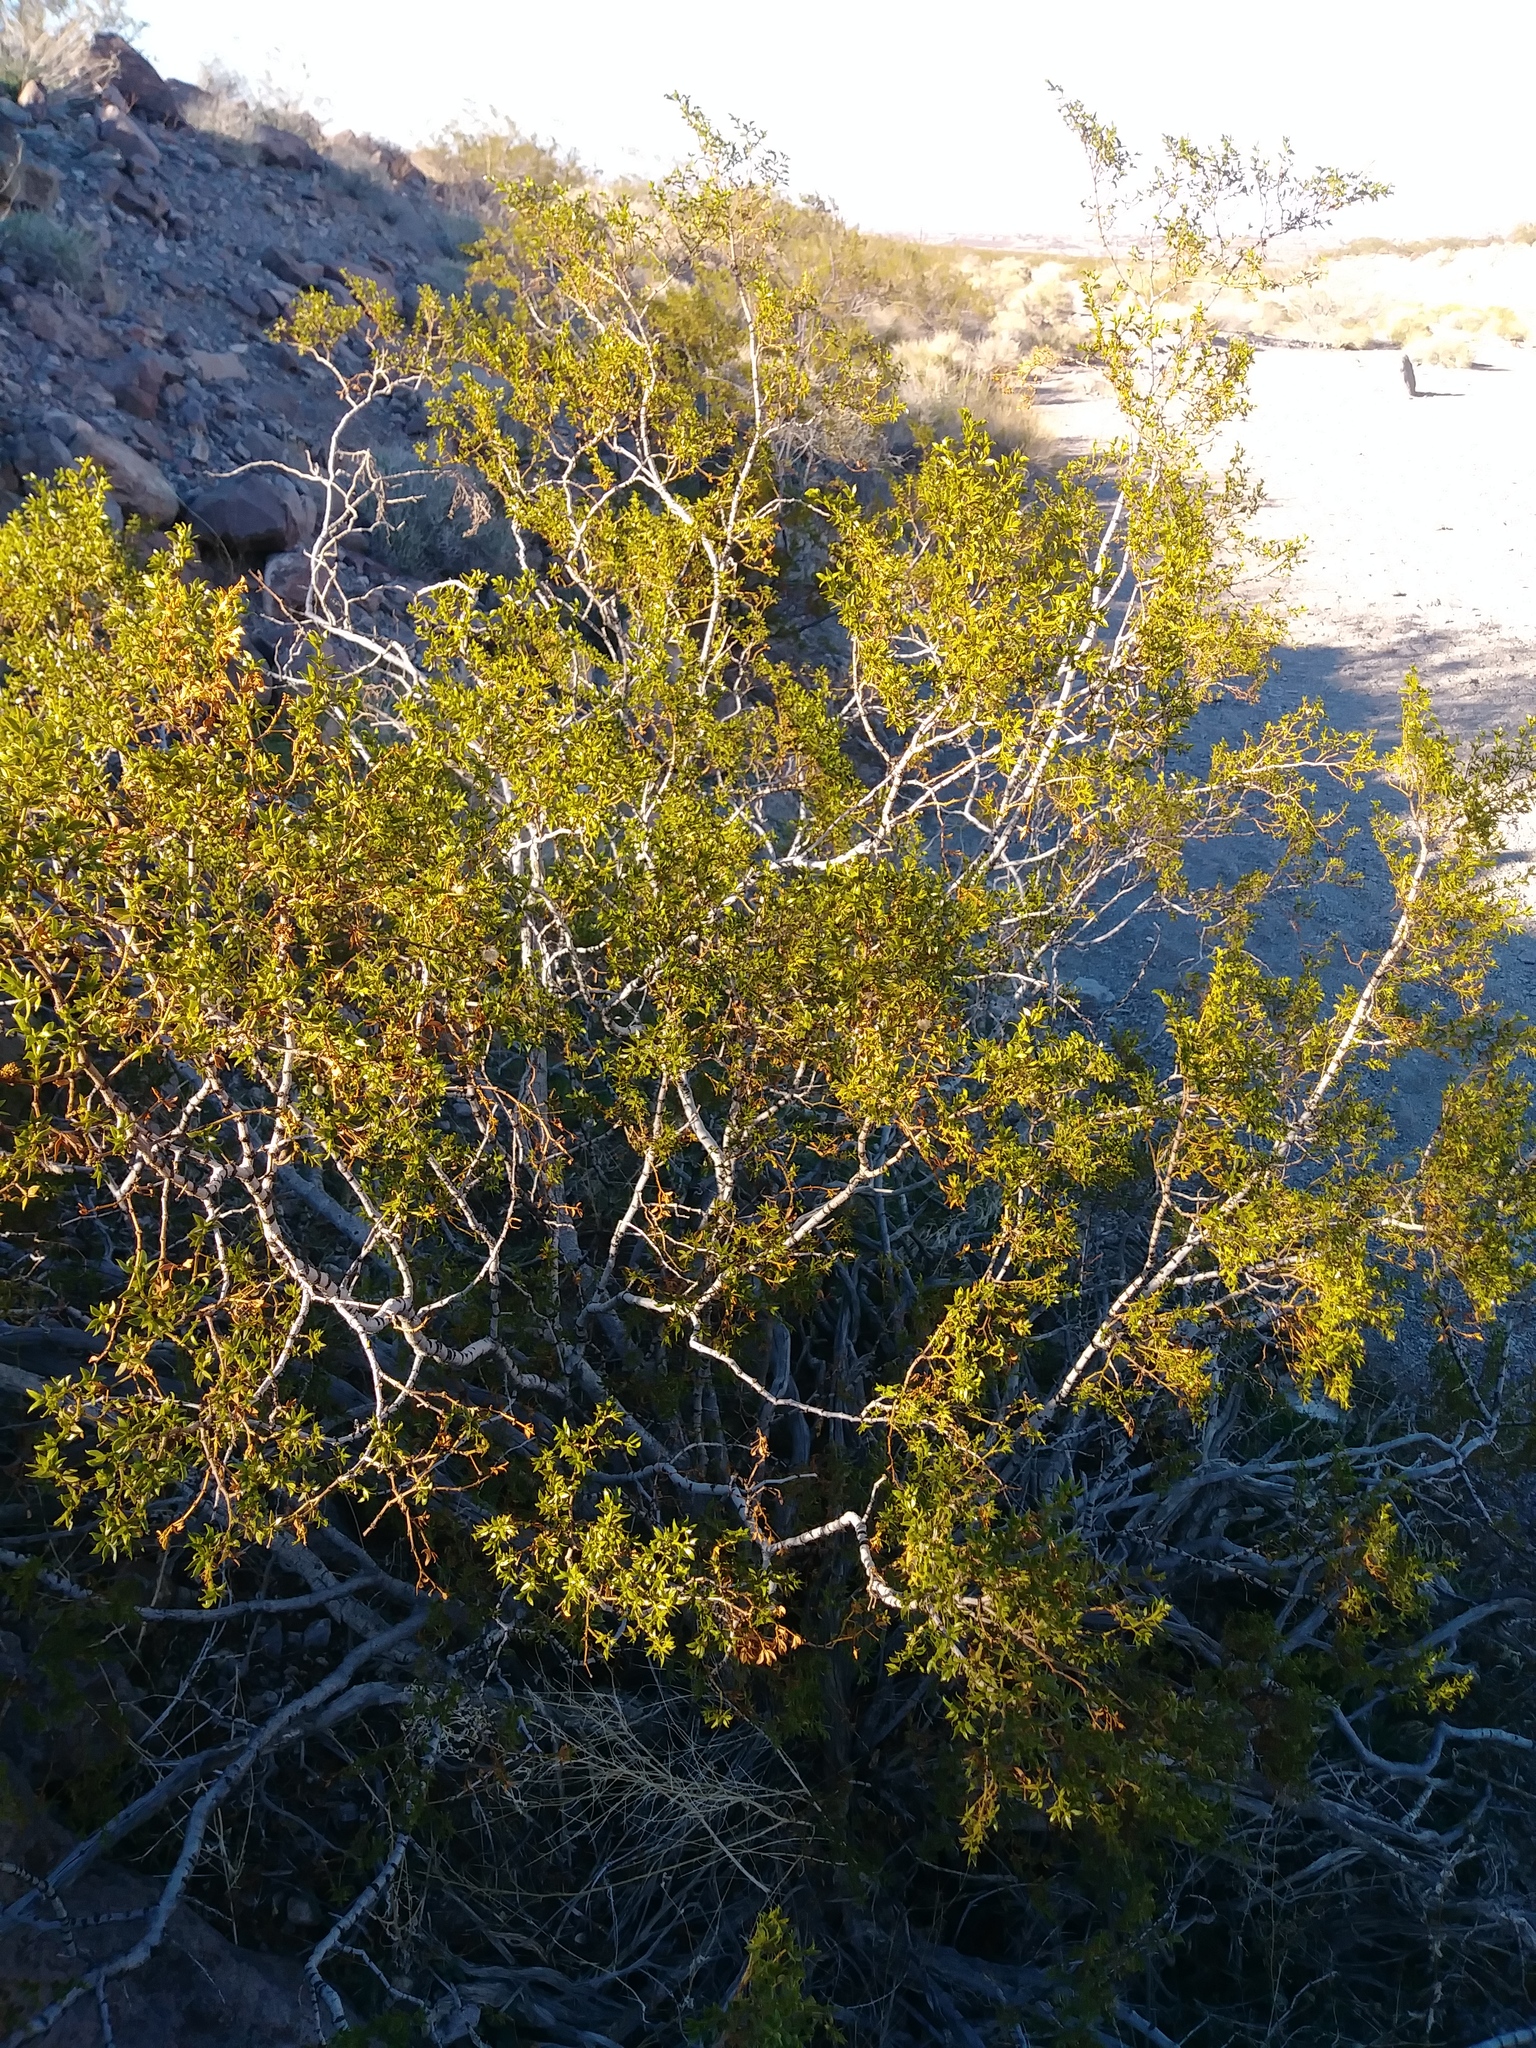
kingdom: Plantae
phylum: Tracheophyta
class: Magnoliopsida
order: Zygophyllales
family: Zygophyllaceae
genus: Larrea
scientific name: Larrea tridentata
